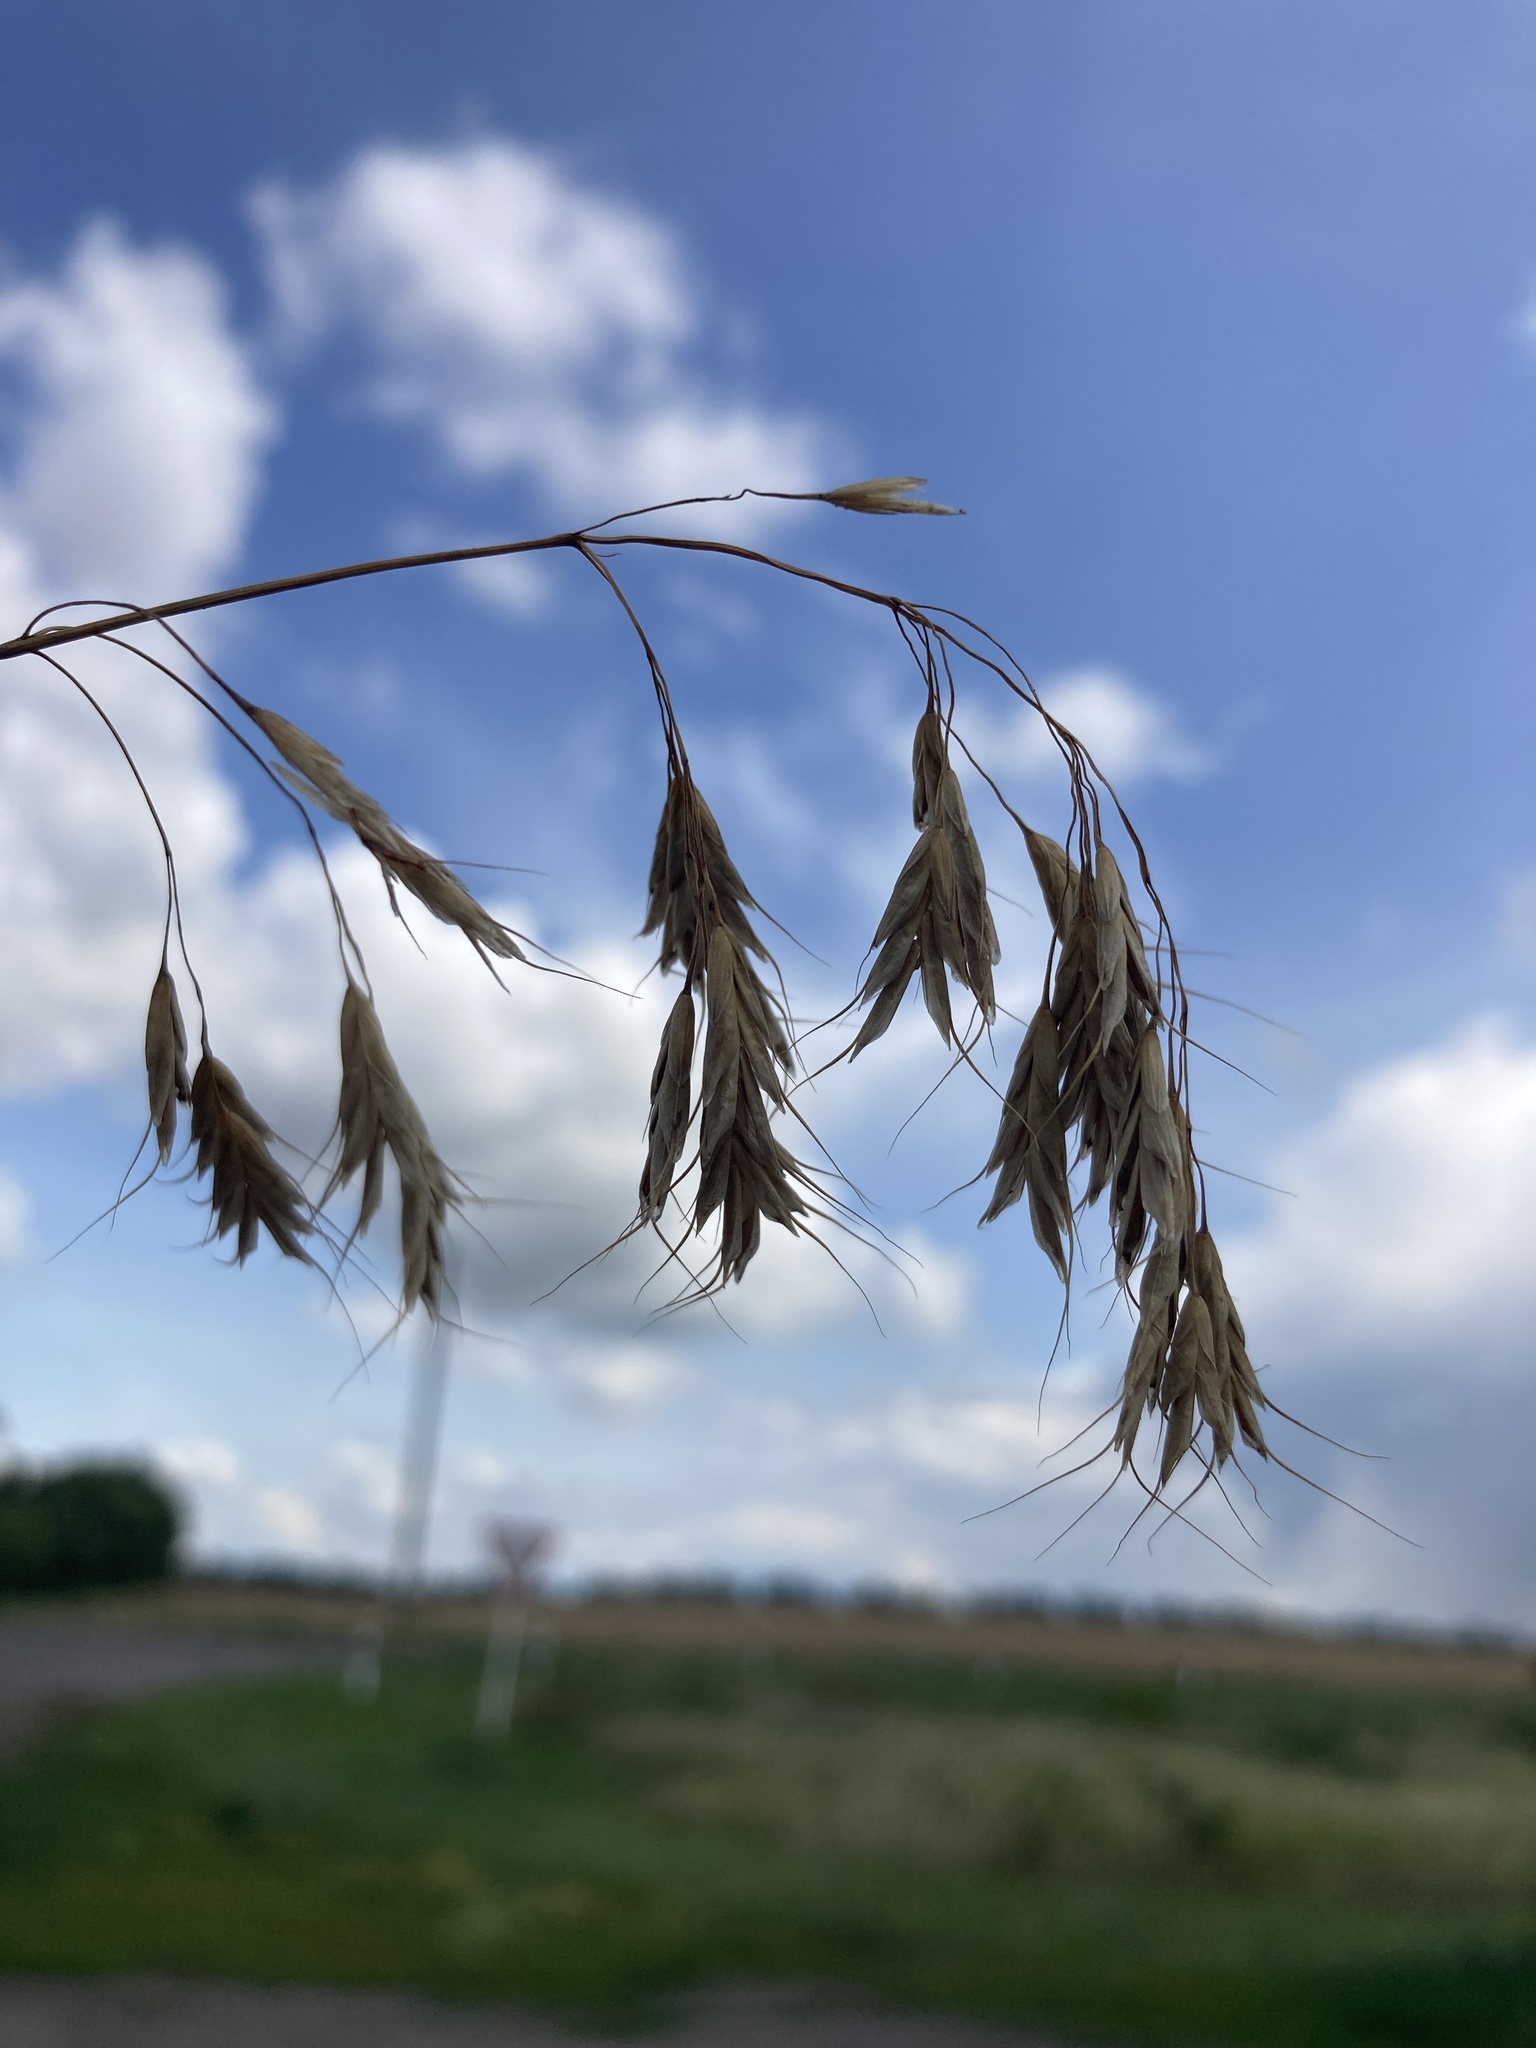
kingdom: Plantae
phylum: Tracheophyta
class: Liliopsida
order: Poales
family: Poaceae
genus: Bromus
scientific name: Bromus squarrosus
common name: Corn brome
